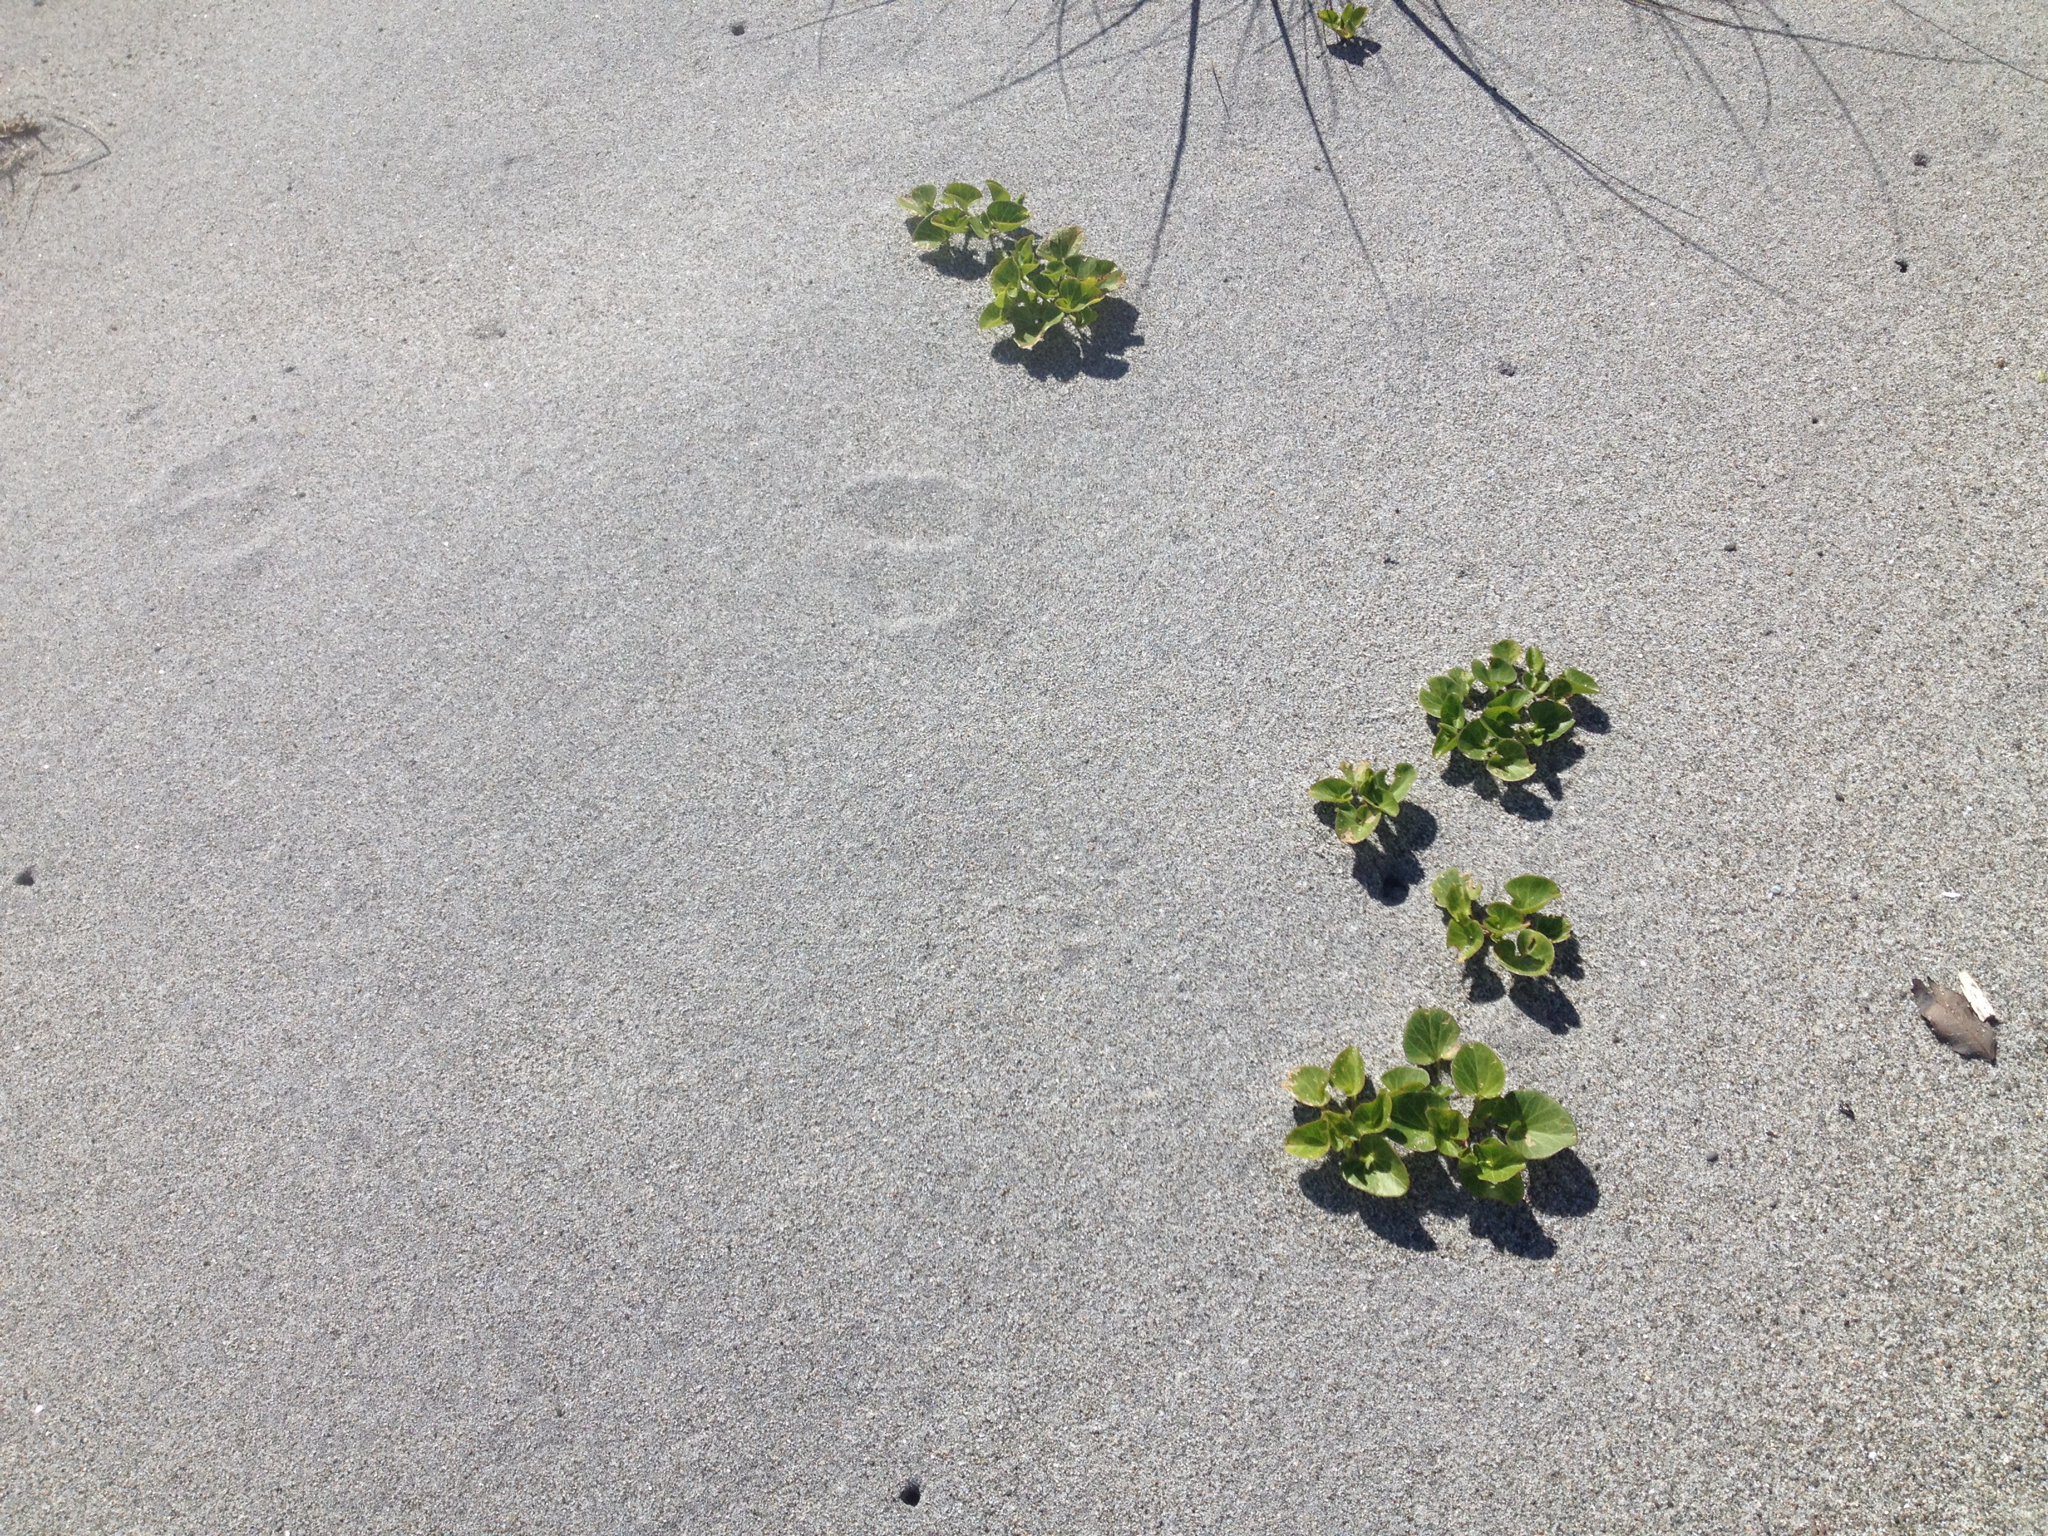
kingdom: Plantae
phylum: Tracheophyta
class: Magnoliopsida
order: Solanales
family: Convolvulaceae
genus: Calystegia
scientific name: Calystegia soldanella
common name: Sea bindweed
